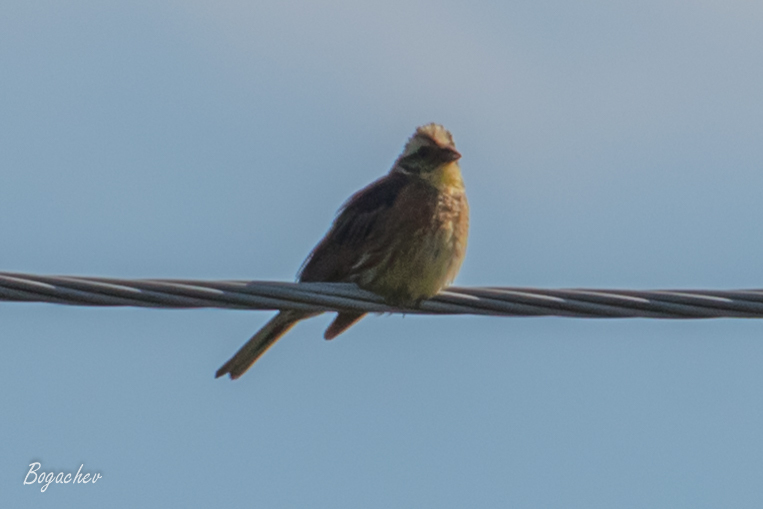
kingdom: Animalia
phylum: Chordata
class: Aves
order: Passeriformes
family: Emberizidae
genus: Emberiza
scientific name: Emberiza citrinella
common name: Yellowhammer
